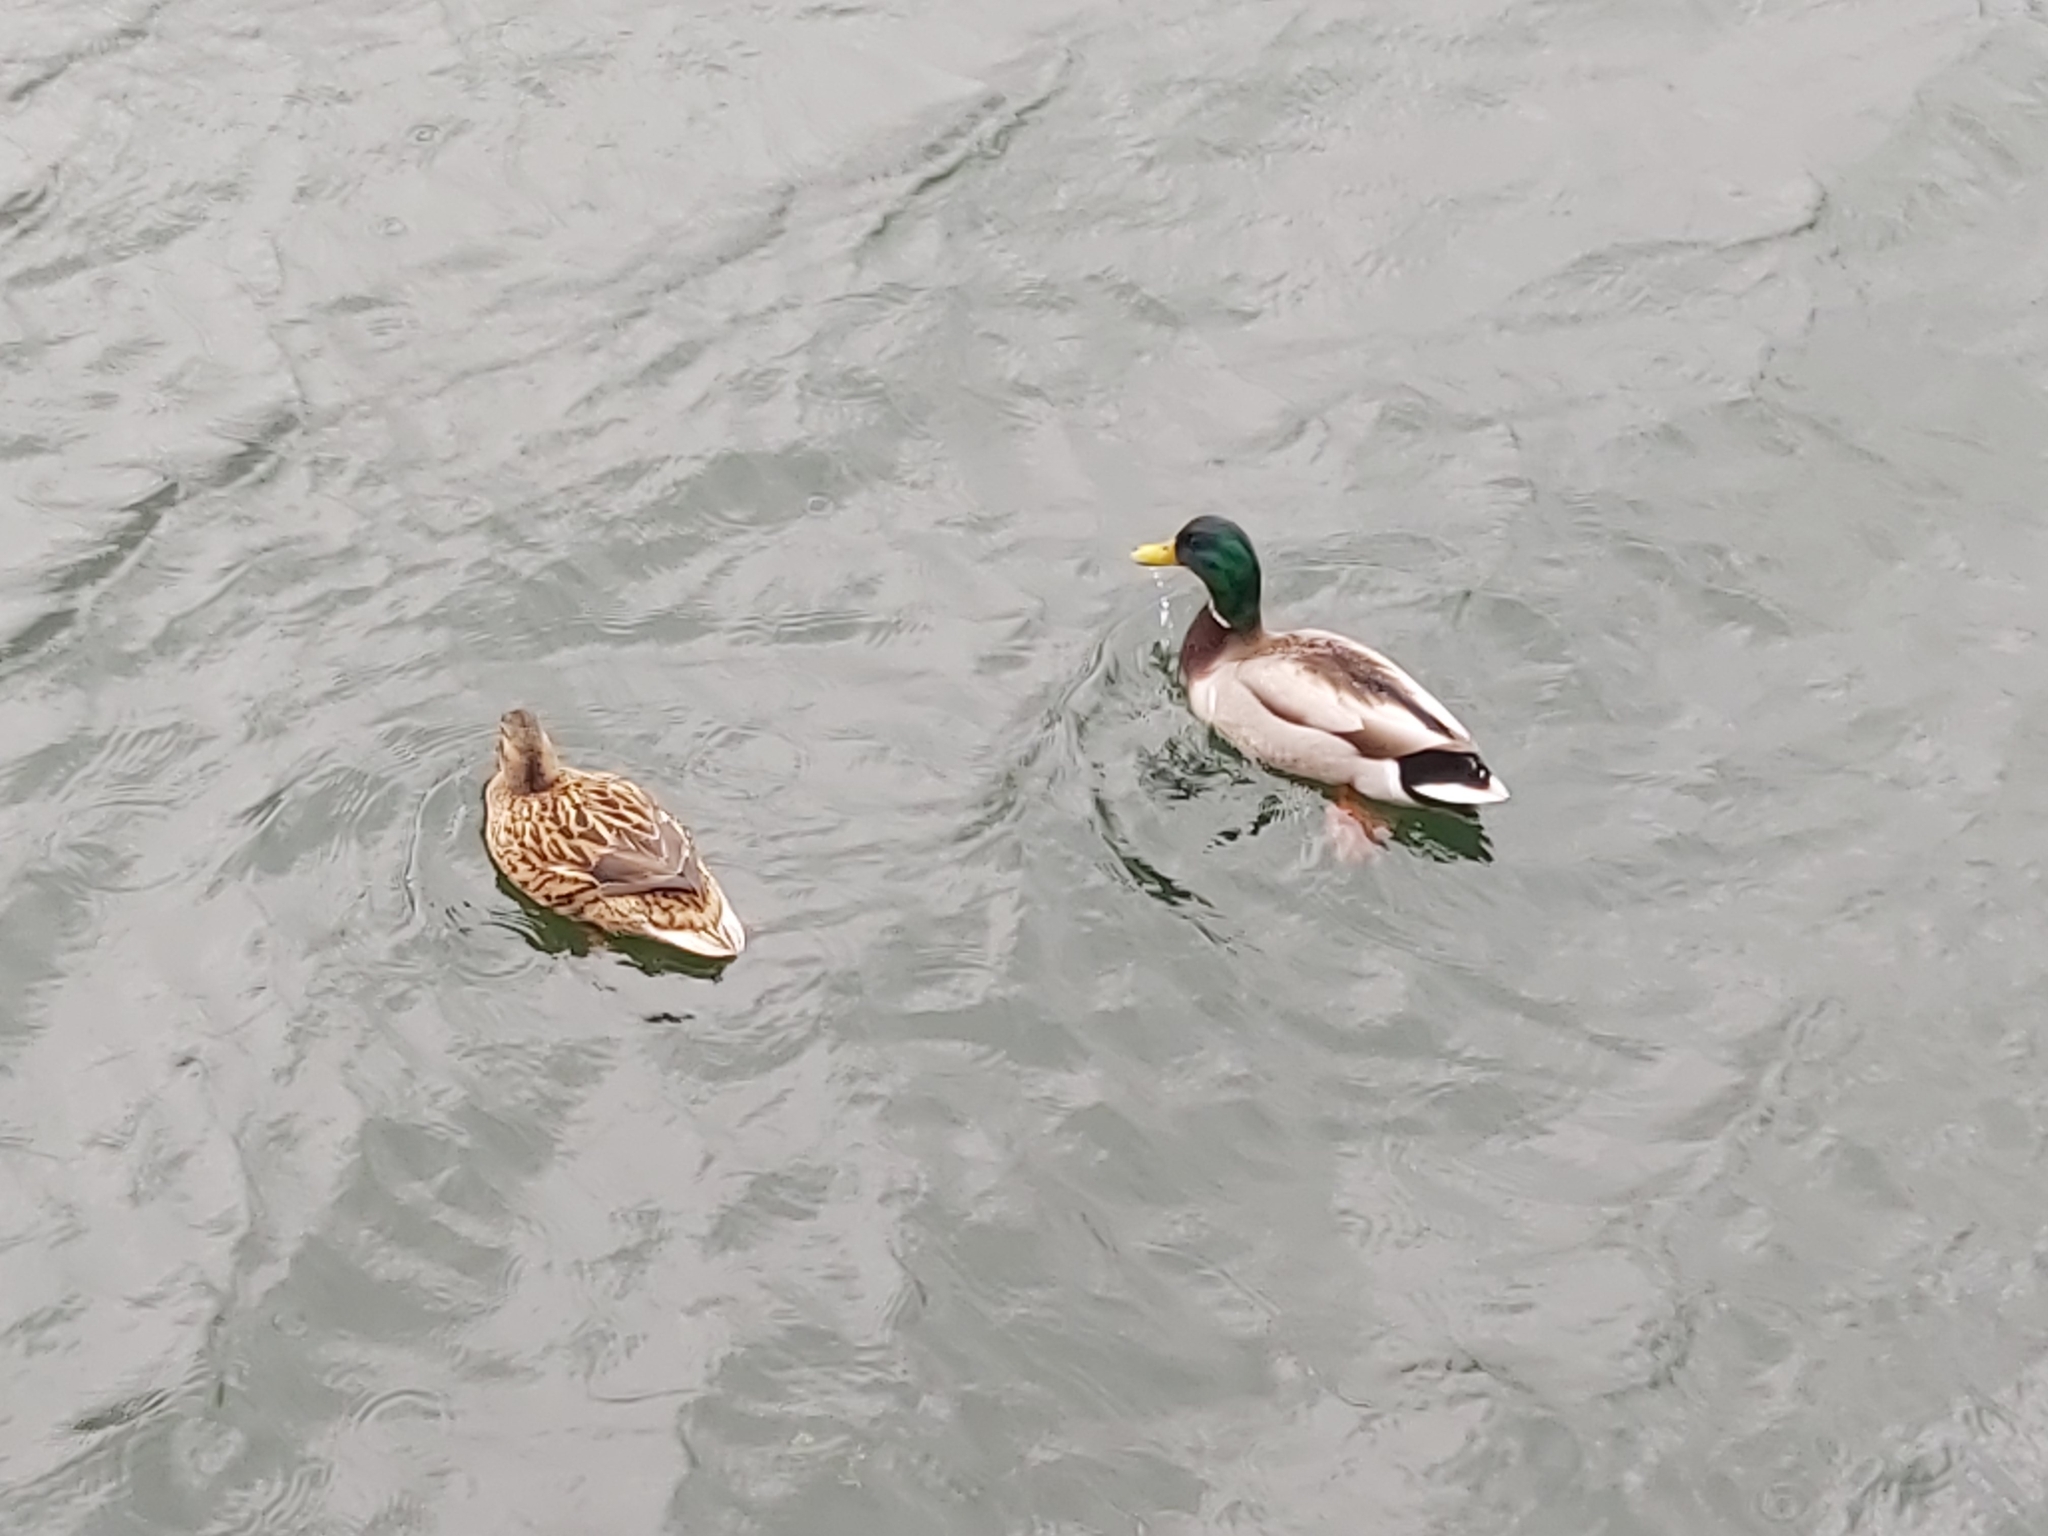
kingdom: Animalia
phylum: Chordata
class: Aves
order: Anseriformes
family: Anatidae
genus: Anas
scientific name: Anas platyrhynchos
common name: Mallard
